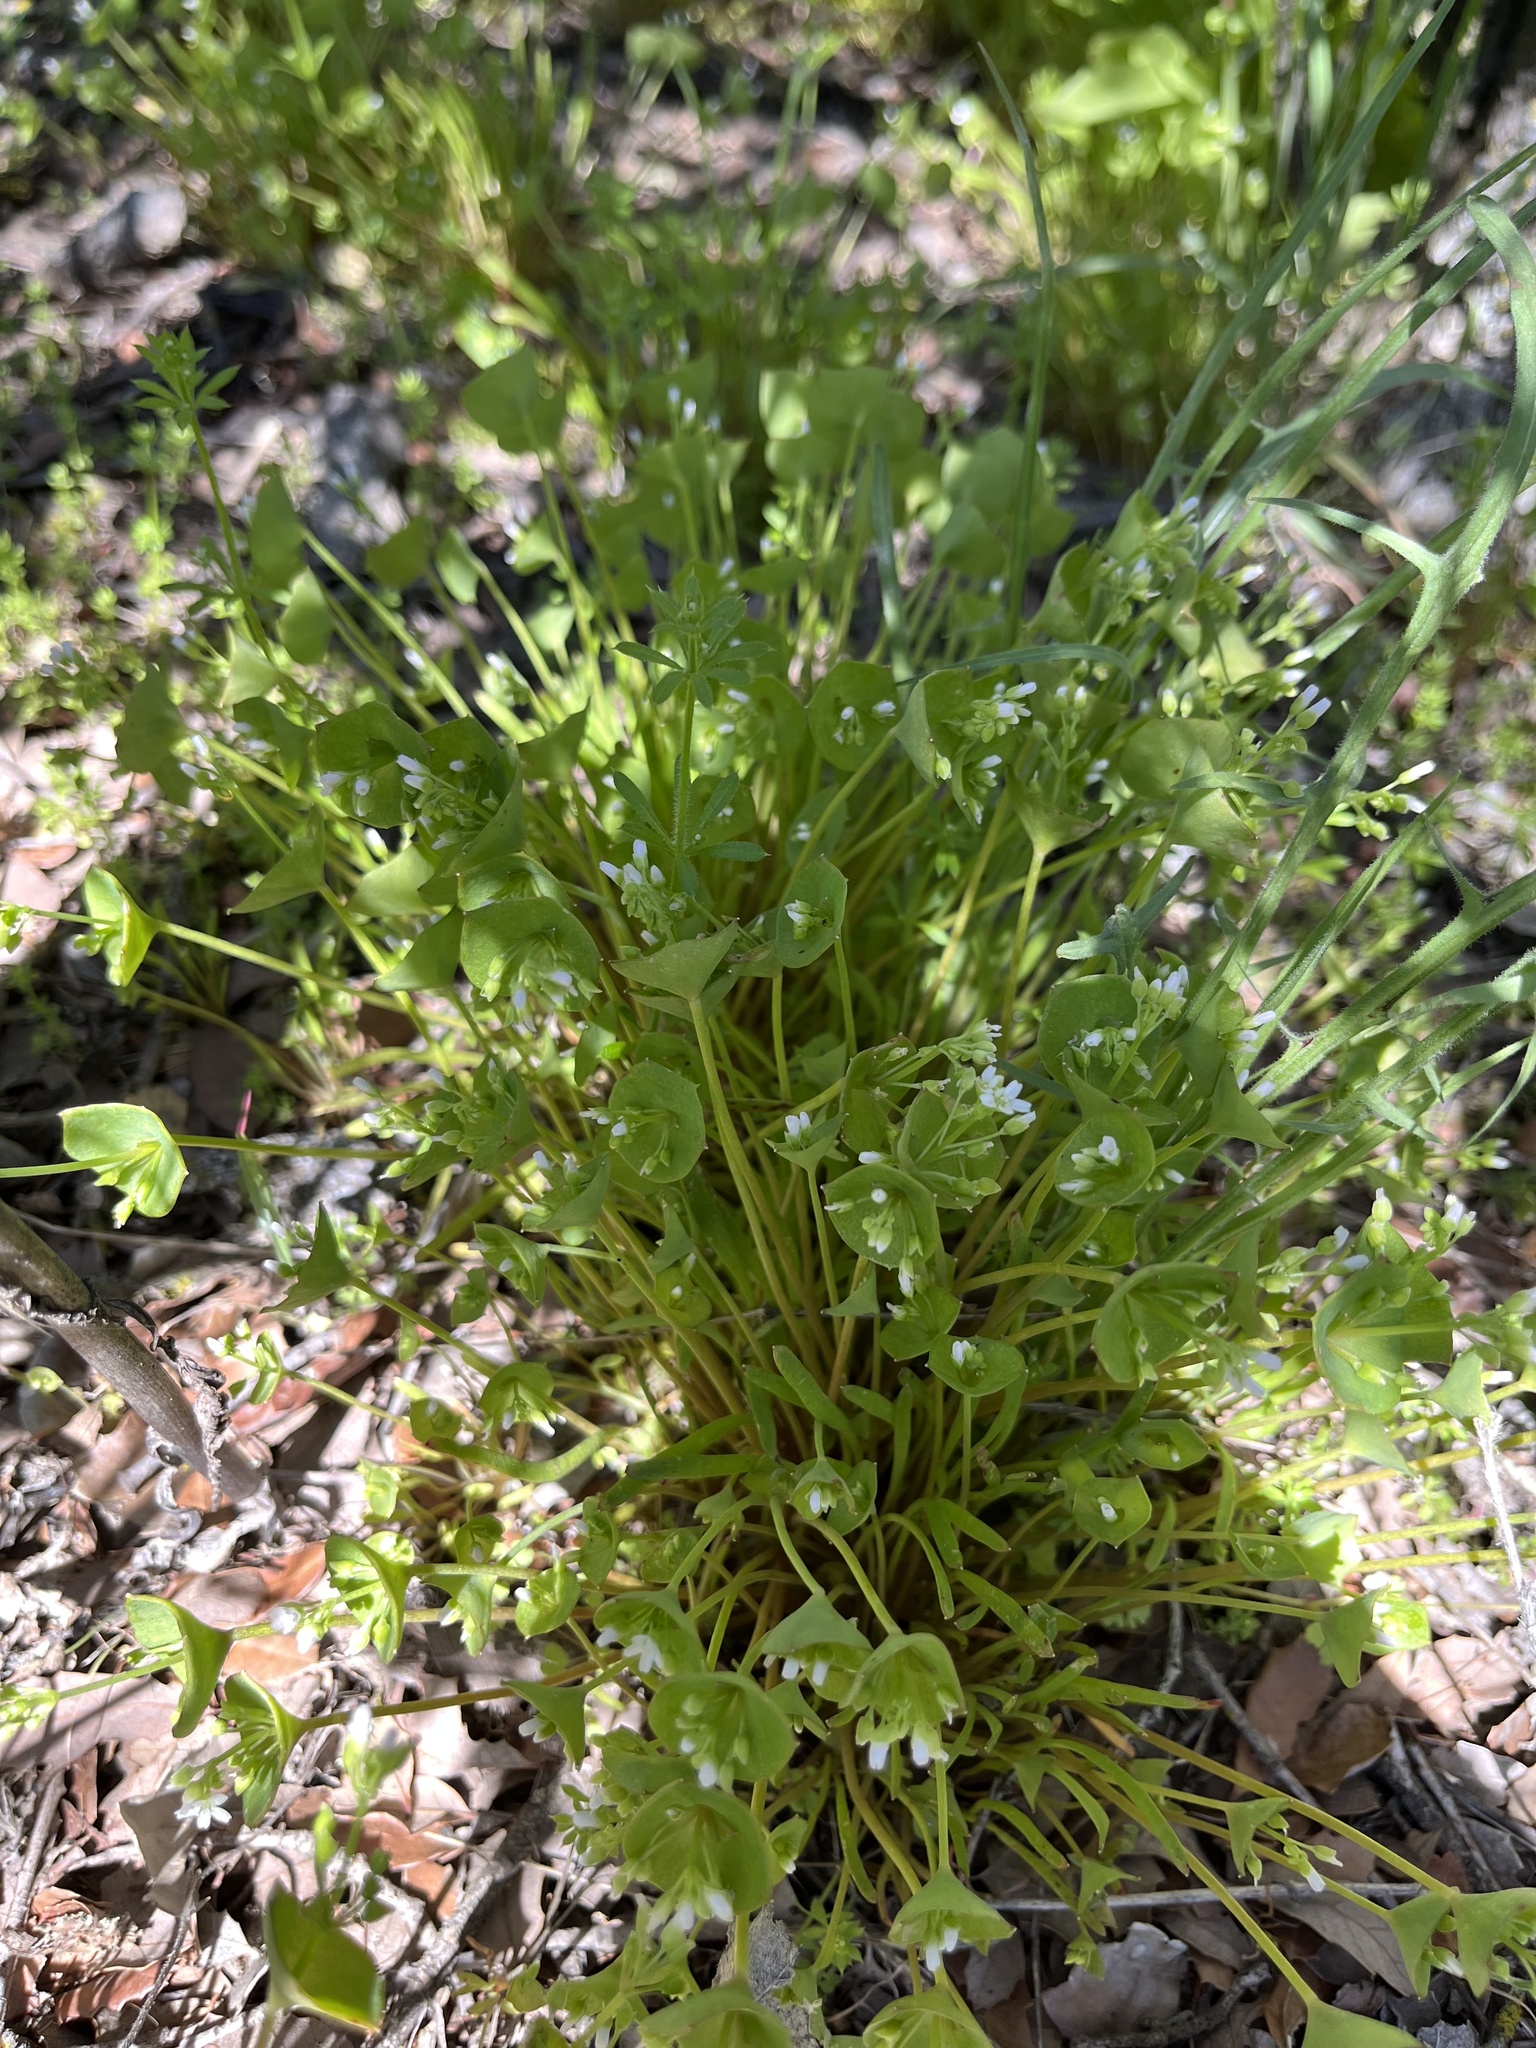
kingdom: Plantae
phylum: Tracheophyta
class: Magnoliopsida
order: Caryophyllales
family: Montiaceae
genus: Claytonia
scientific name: Claytonia perfoliata
